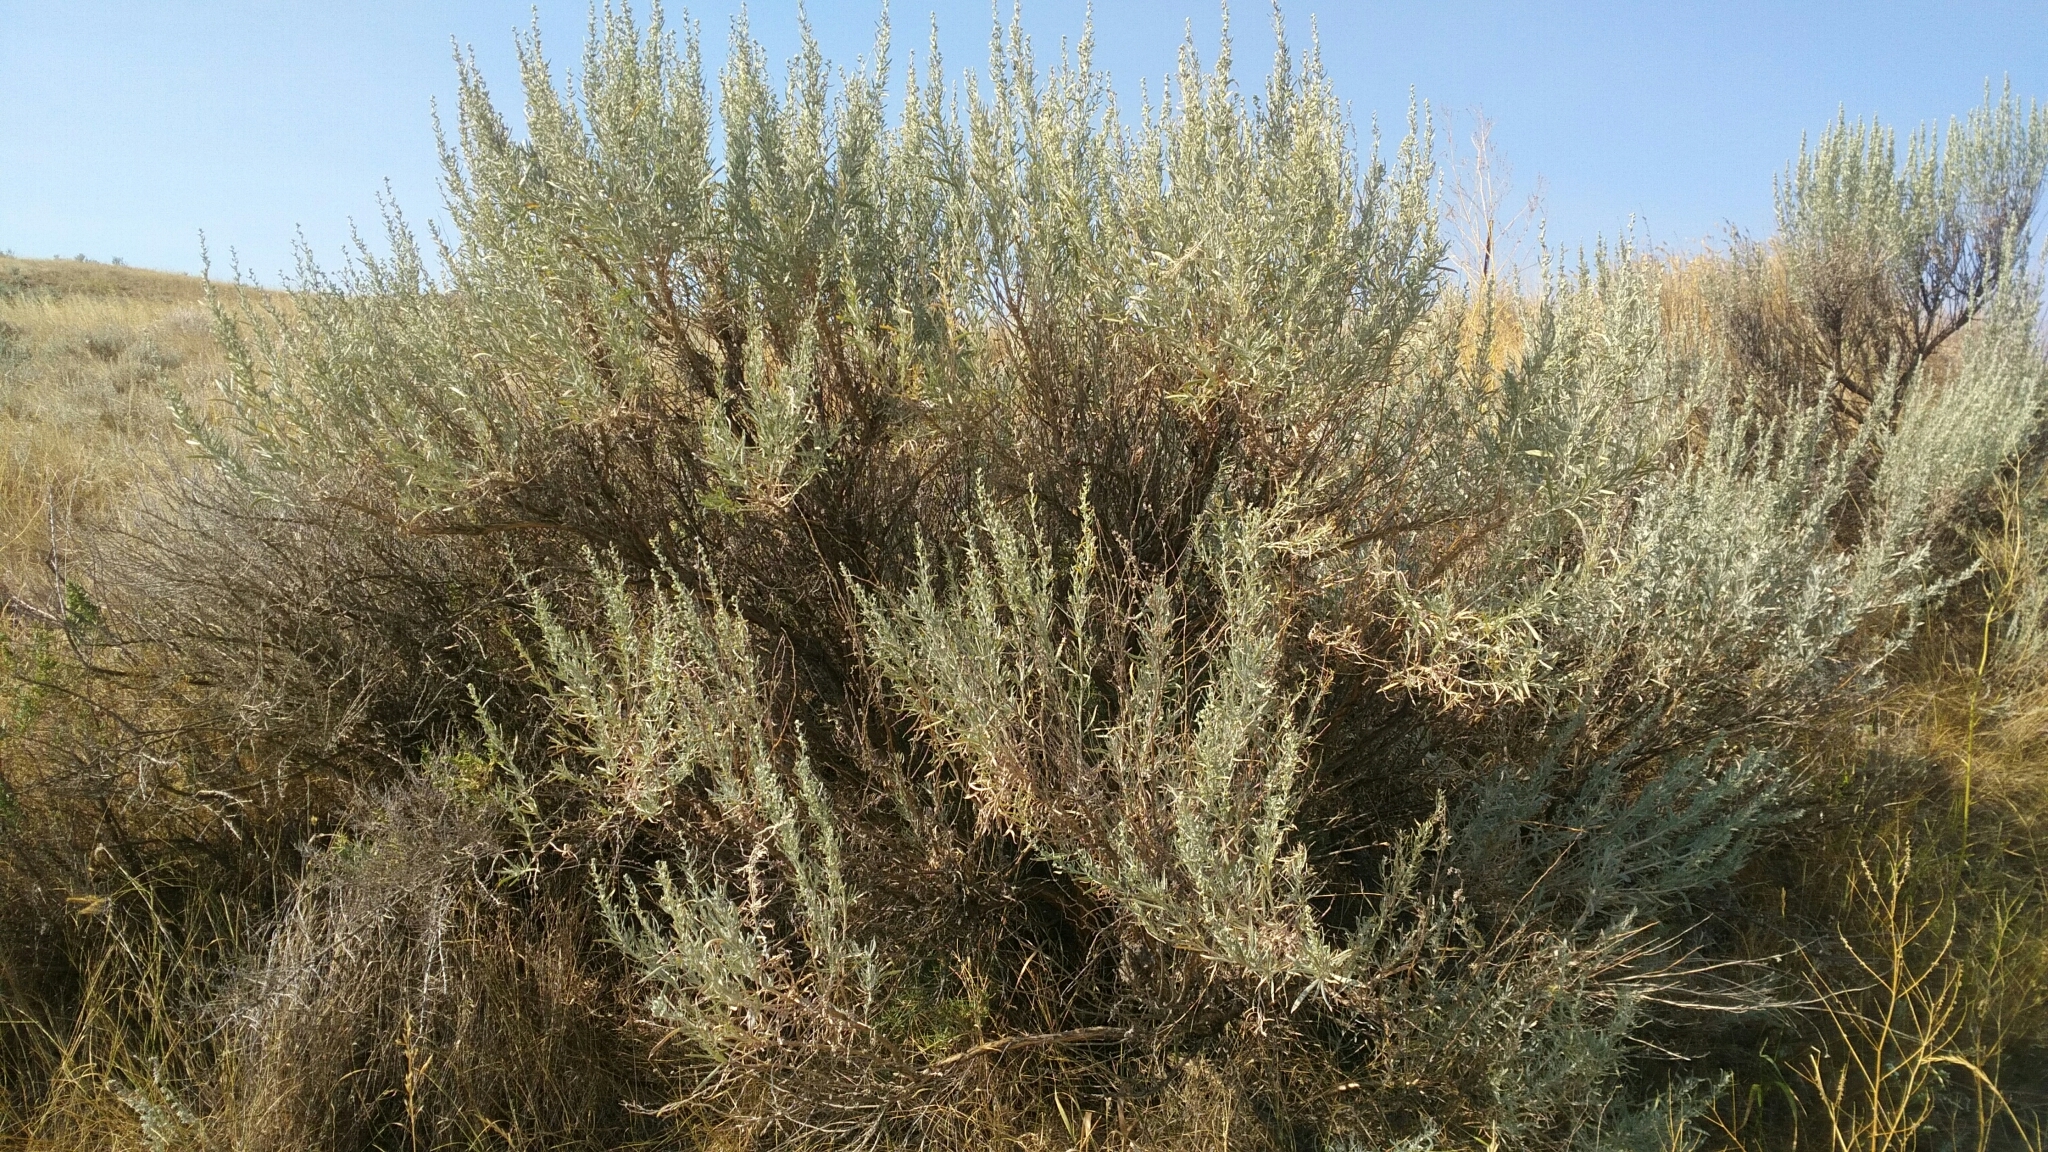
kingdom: Plantae
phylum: Tracheophyta
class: Magnoliopsida
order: Asterales
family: Asteraceae
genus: Artemisia
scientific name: Artemisia cana
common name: Silver sagebrush
